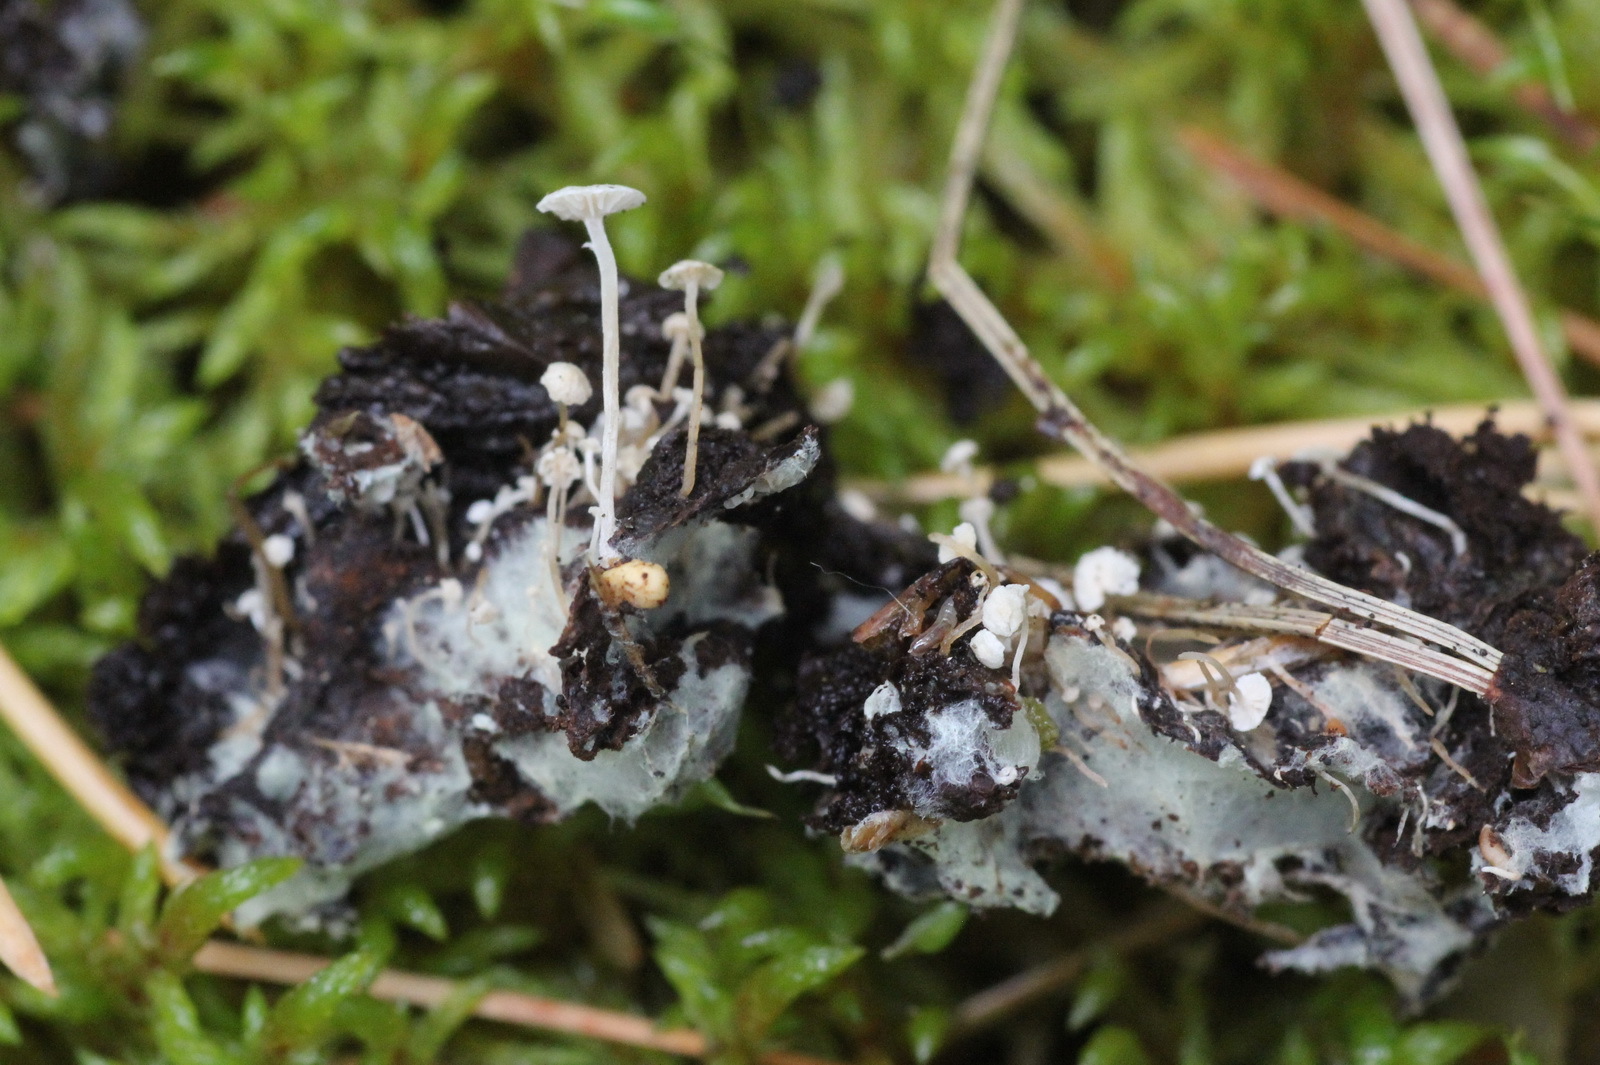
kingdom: Fungi
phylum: Basidiomycota
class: Agaricomycetes
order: Agaricales
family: Tricholomataceae
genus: Collybia
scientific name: Collybia cookei
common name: Splitpea shanklet
